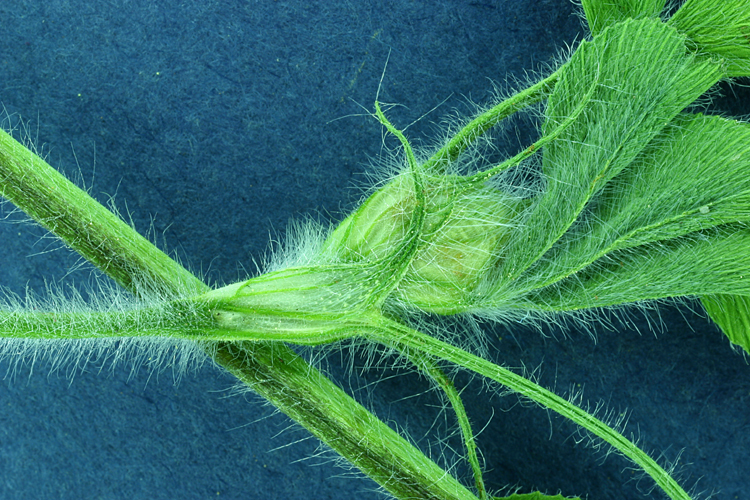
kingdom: Plantae
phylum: Tracheophyta
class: Magnoliopsida
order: Fabales
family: Fabaceae
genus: Trifolium
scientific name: Trifolium hirtum
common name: Rose clover
